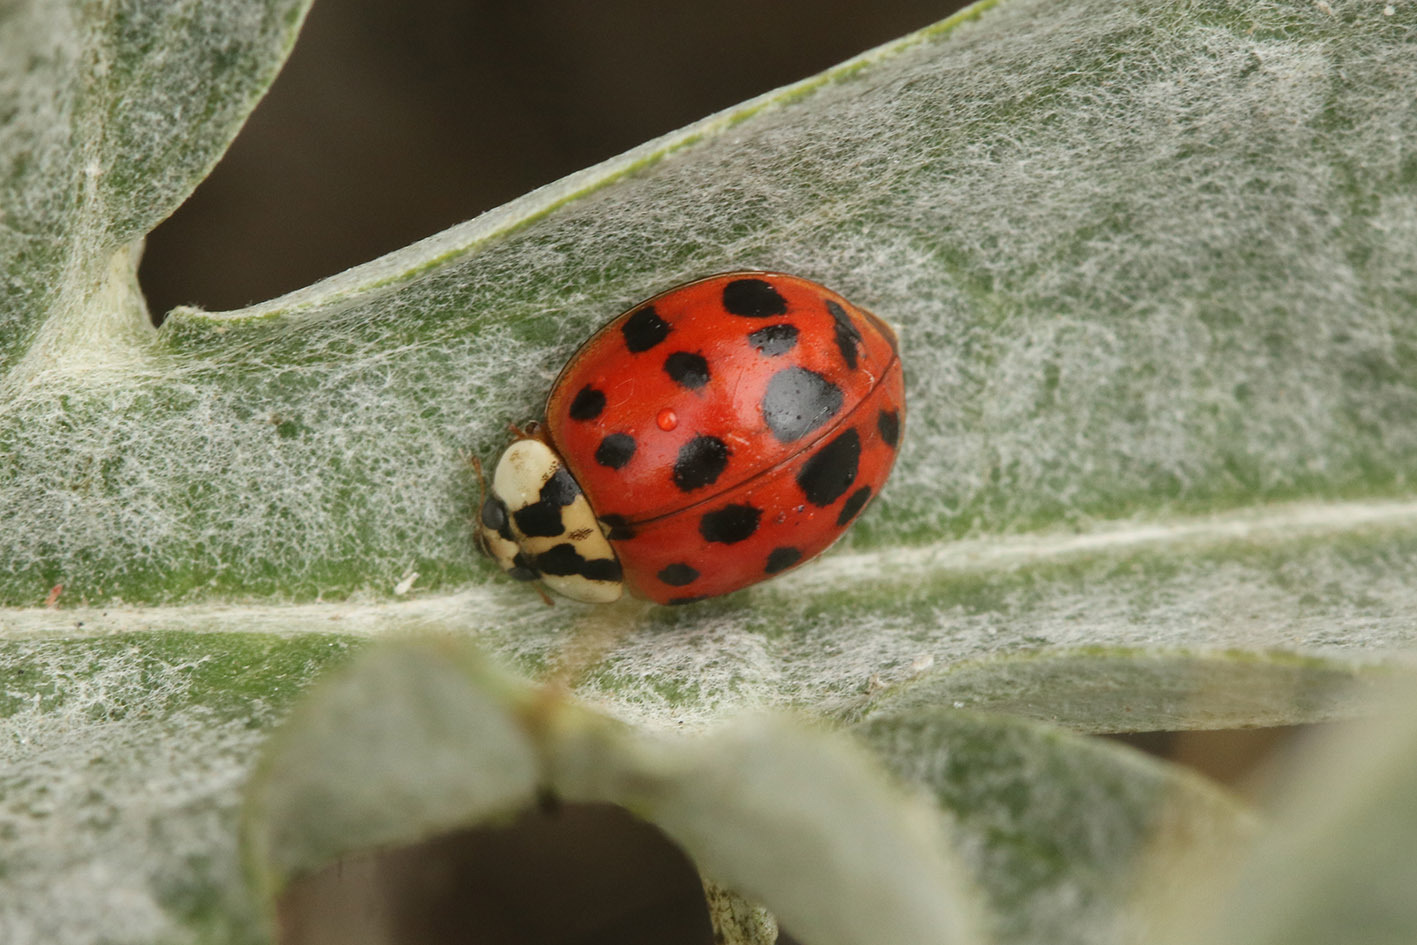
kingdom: Animalia
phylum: Arthropoda
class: Insecta
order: Coleoptera
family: Coccinellidae
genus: Harmonia
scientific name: Harmonia axyridis
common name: Harlequin ladybird
